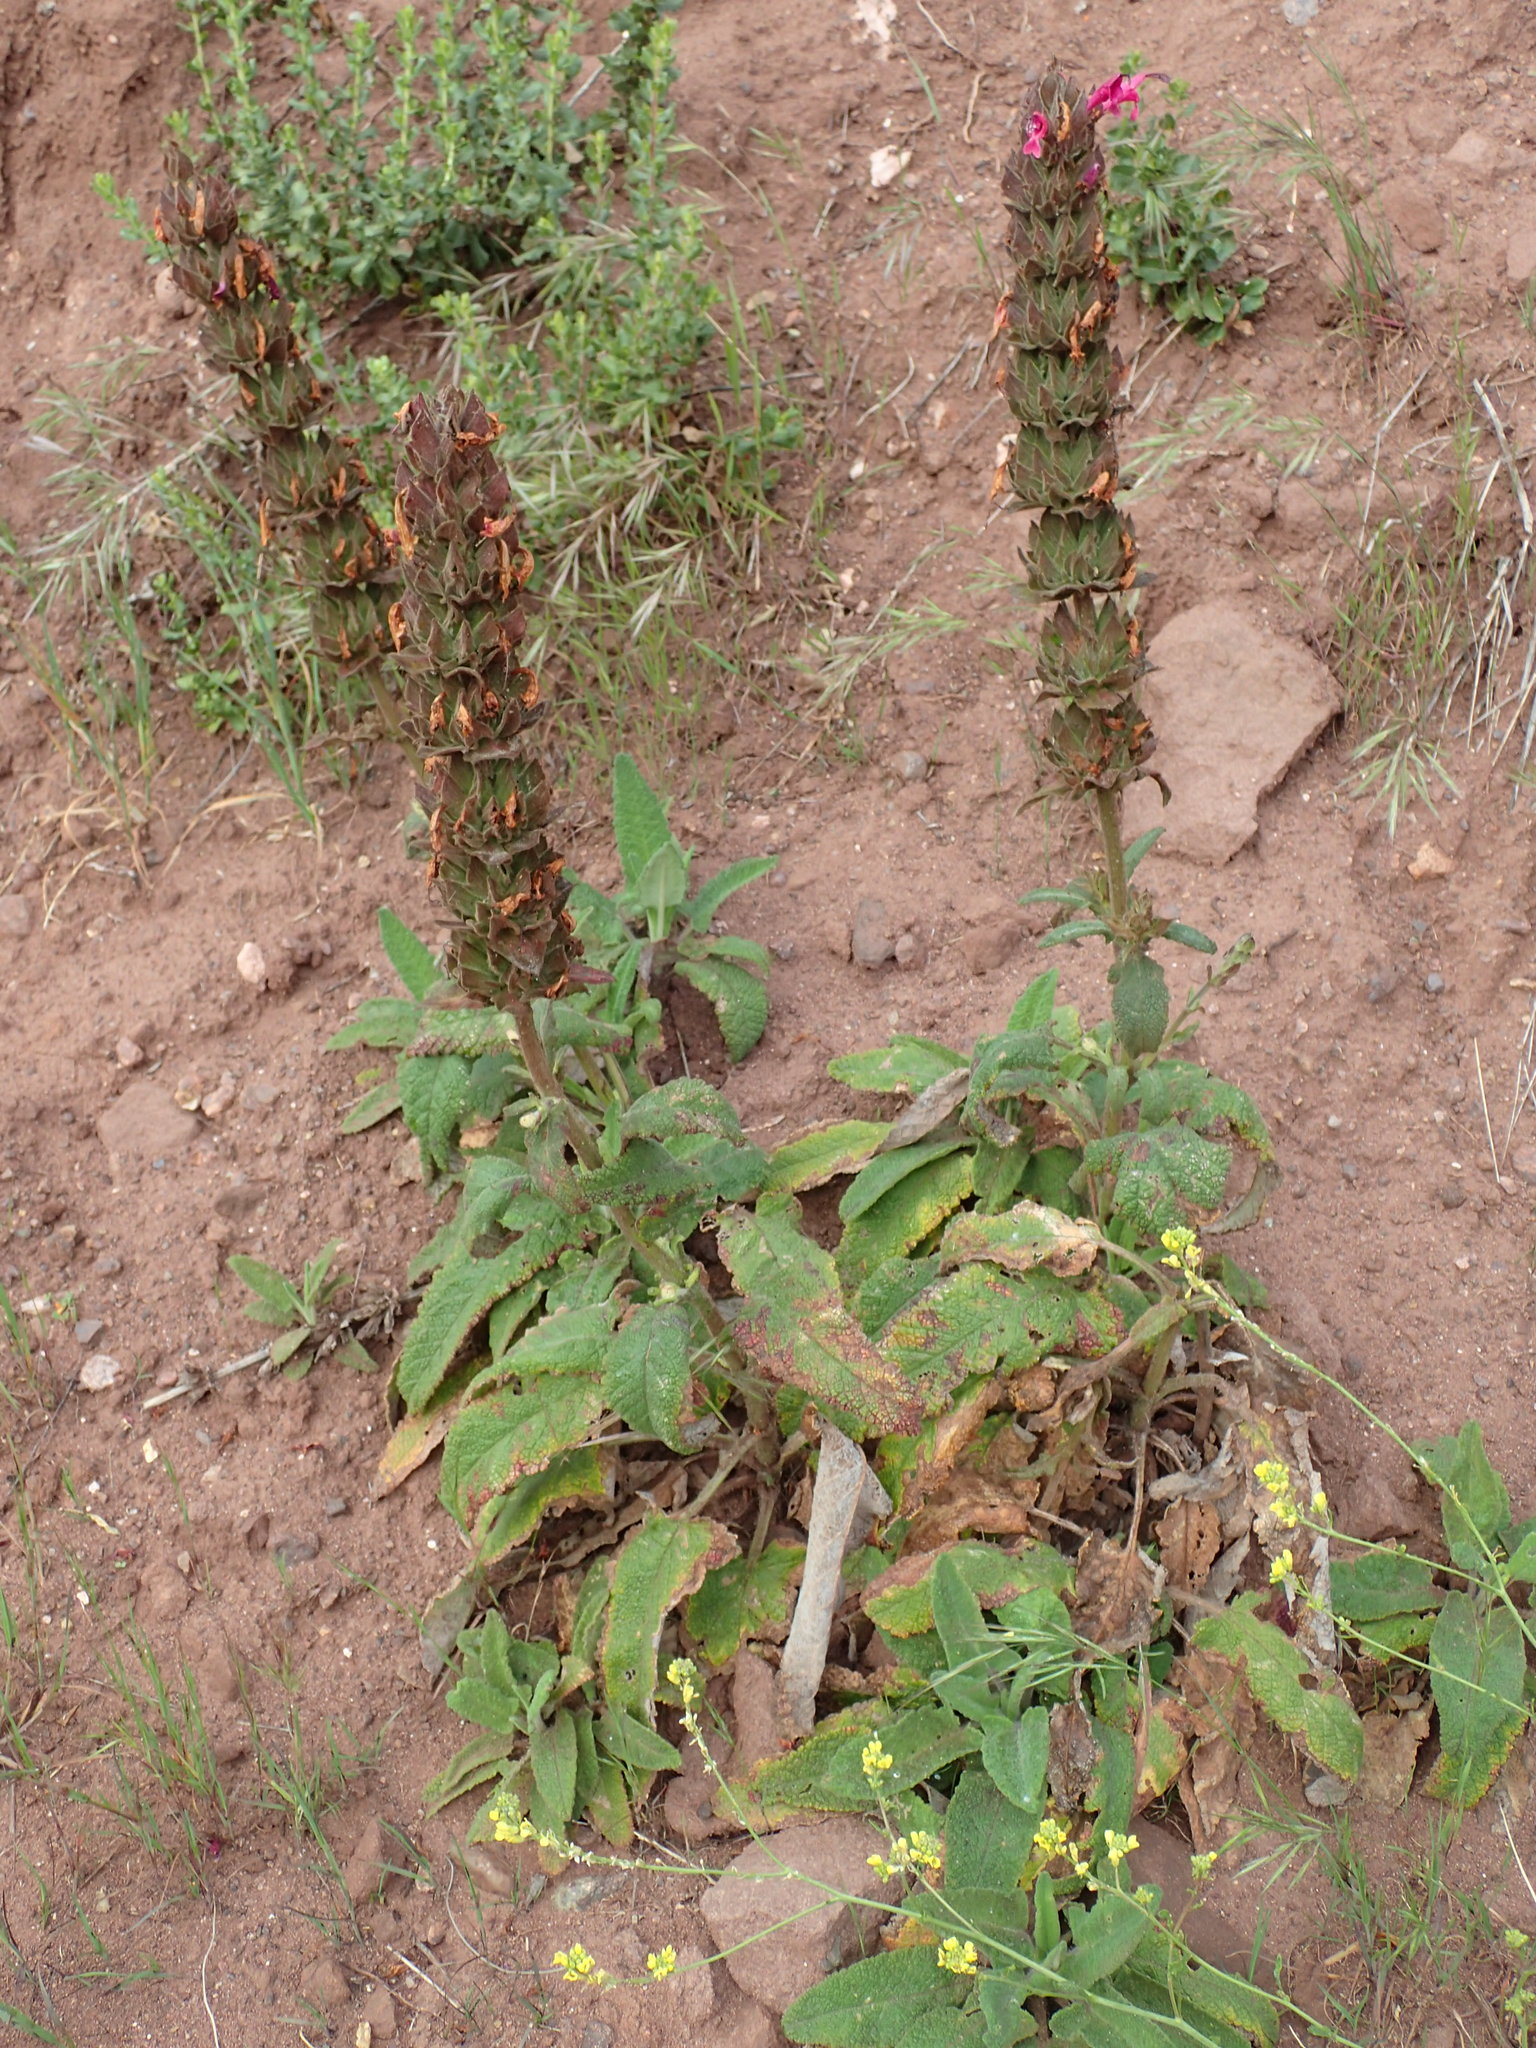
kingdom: Plantae
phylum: Tracheophyta
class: Magnoliopsida
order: Lamiales
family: Lamiaceae
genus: Salvia
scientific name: Salvia spathacea
